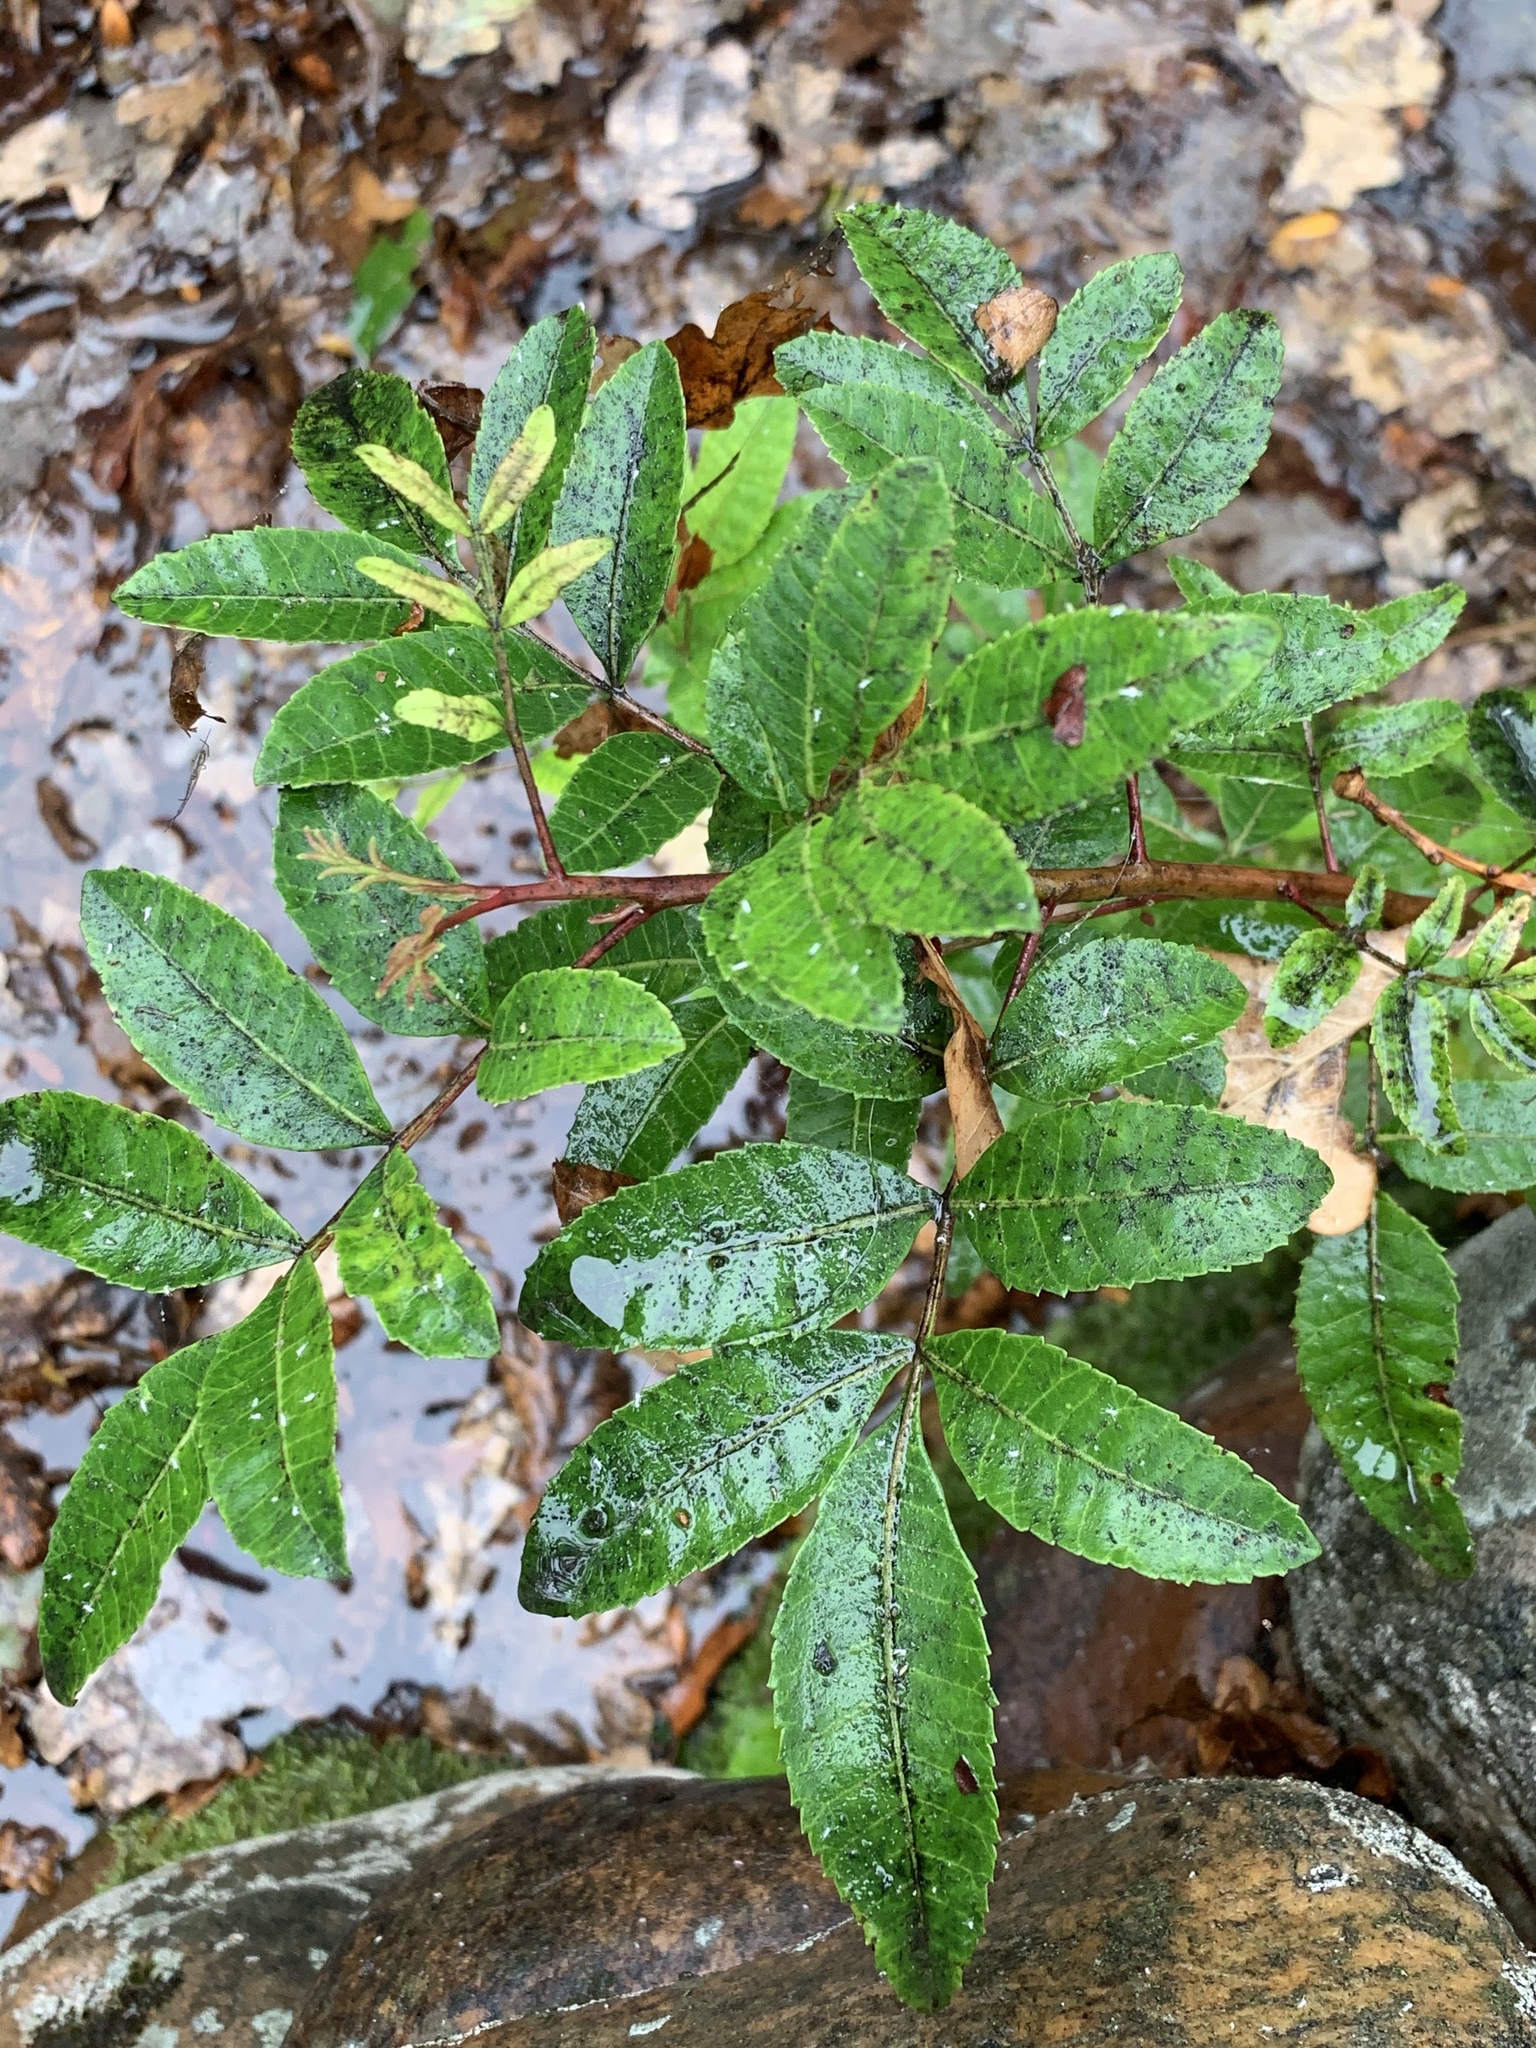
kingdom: Plantae
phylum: Tracheophyta
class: Magnoliopsida
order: Sapindales
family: Anacardiaceae
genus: Schinus
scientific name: Schinus terebinthifolia
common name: Brazilian peppertree
